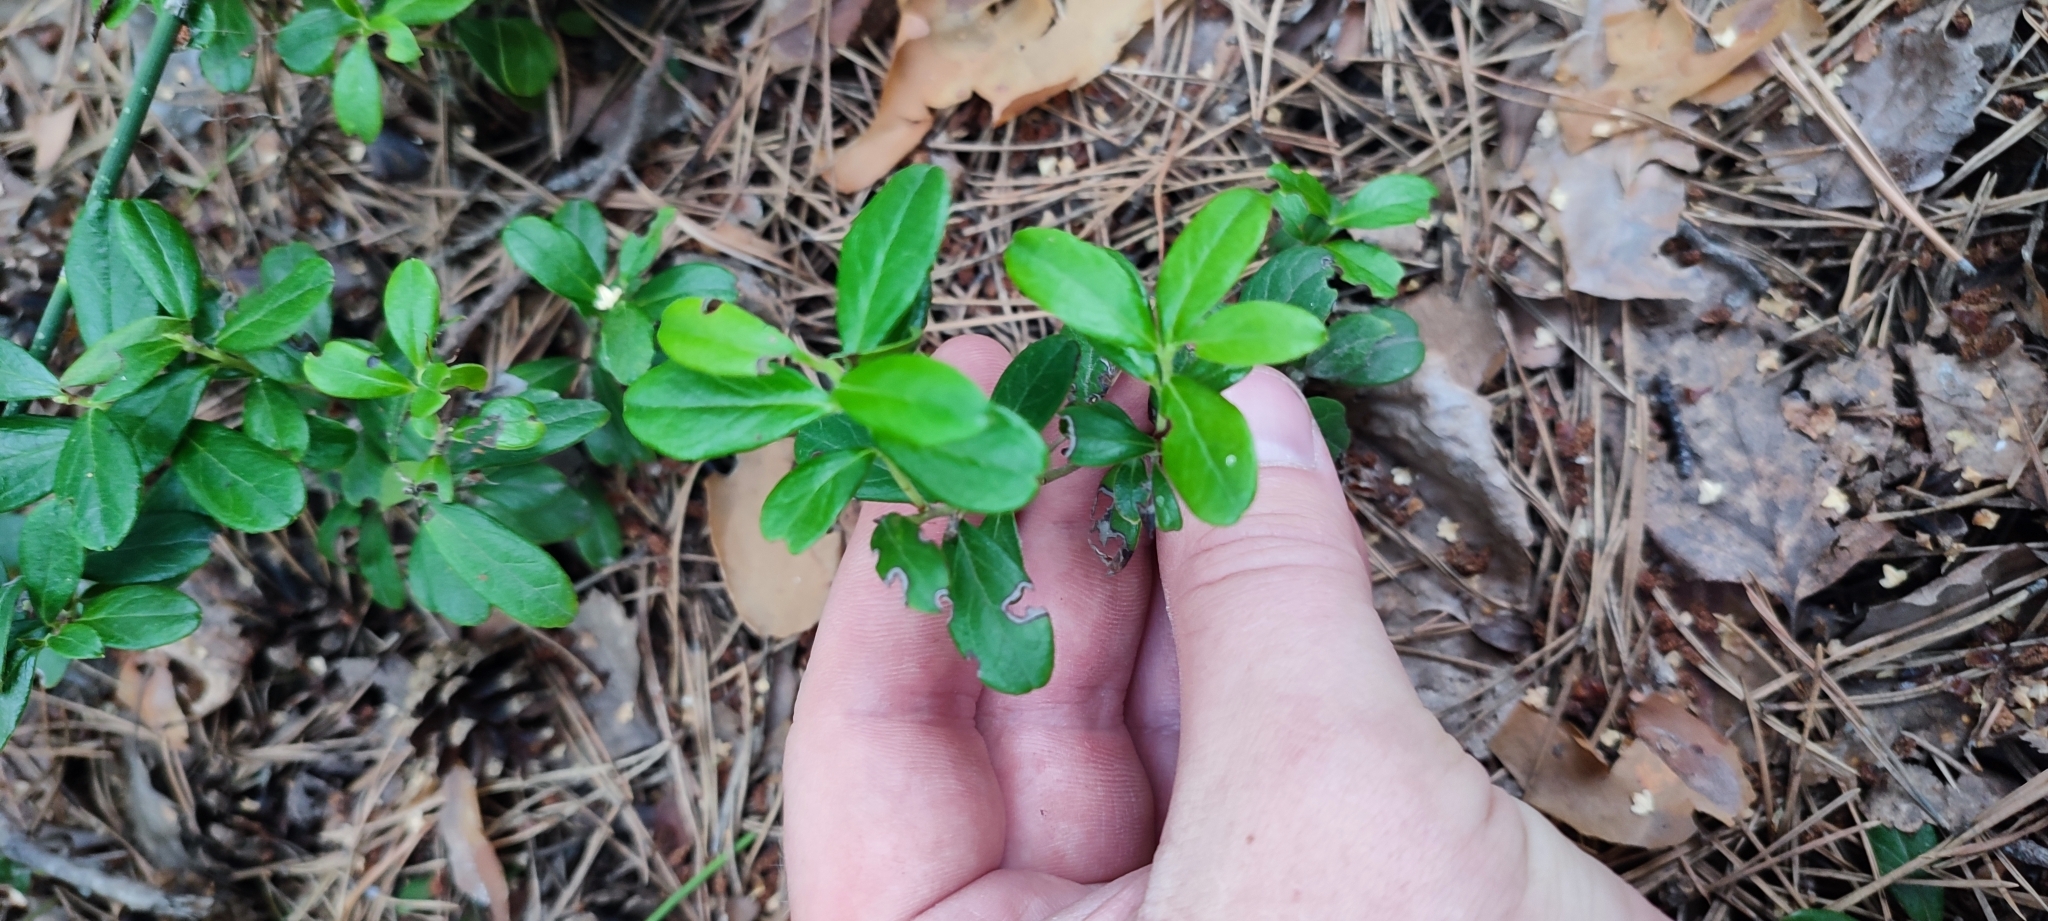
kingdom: Plantae
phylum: Tracheophyta
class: Magnoliopsida
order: Ericales
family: Ericaceae
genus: Vaccinium
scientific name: Vaccinium vitis-idaea
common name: Cowberry
